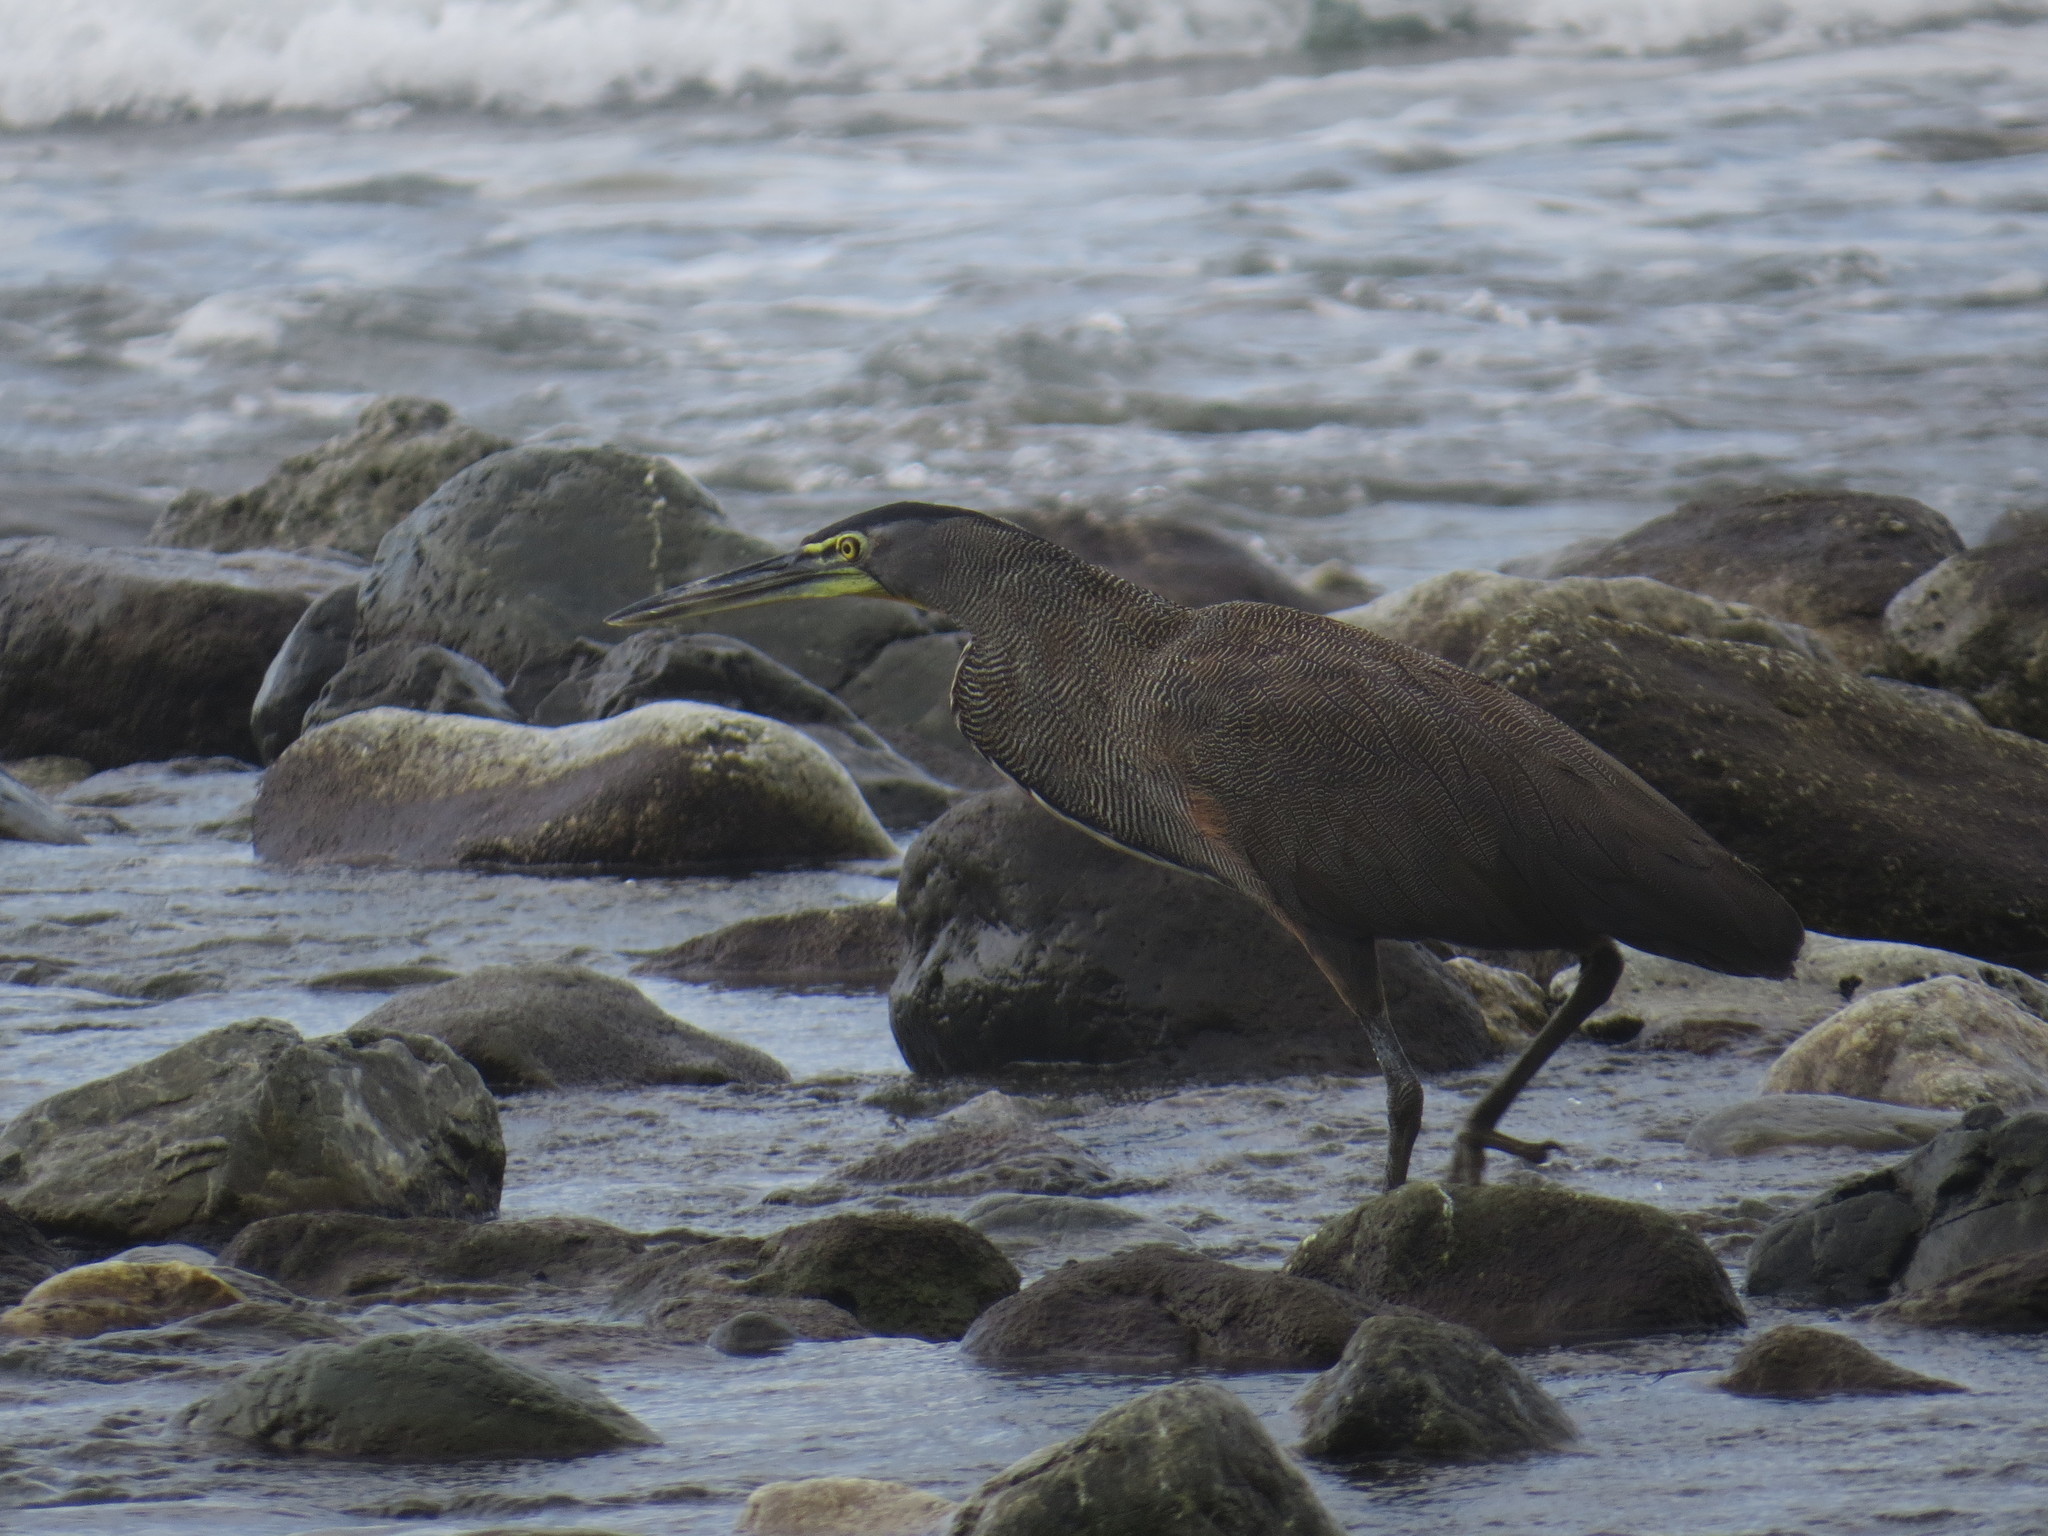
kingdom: Animalia
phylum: Chordata
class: Aves
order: Pelecaniformes
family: Ardeidae
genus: Tigrisoma
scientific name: Tigrisoma mexicanum
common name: Bare-throated tiger-heron
